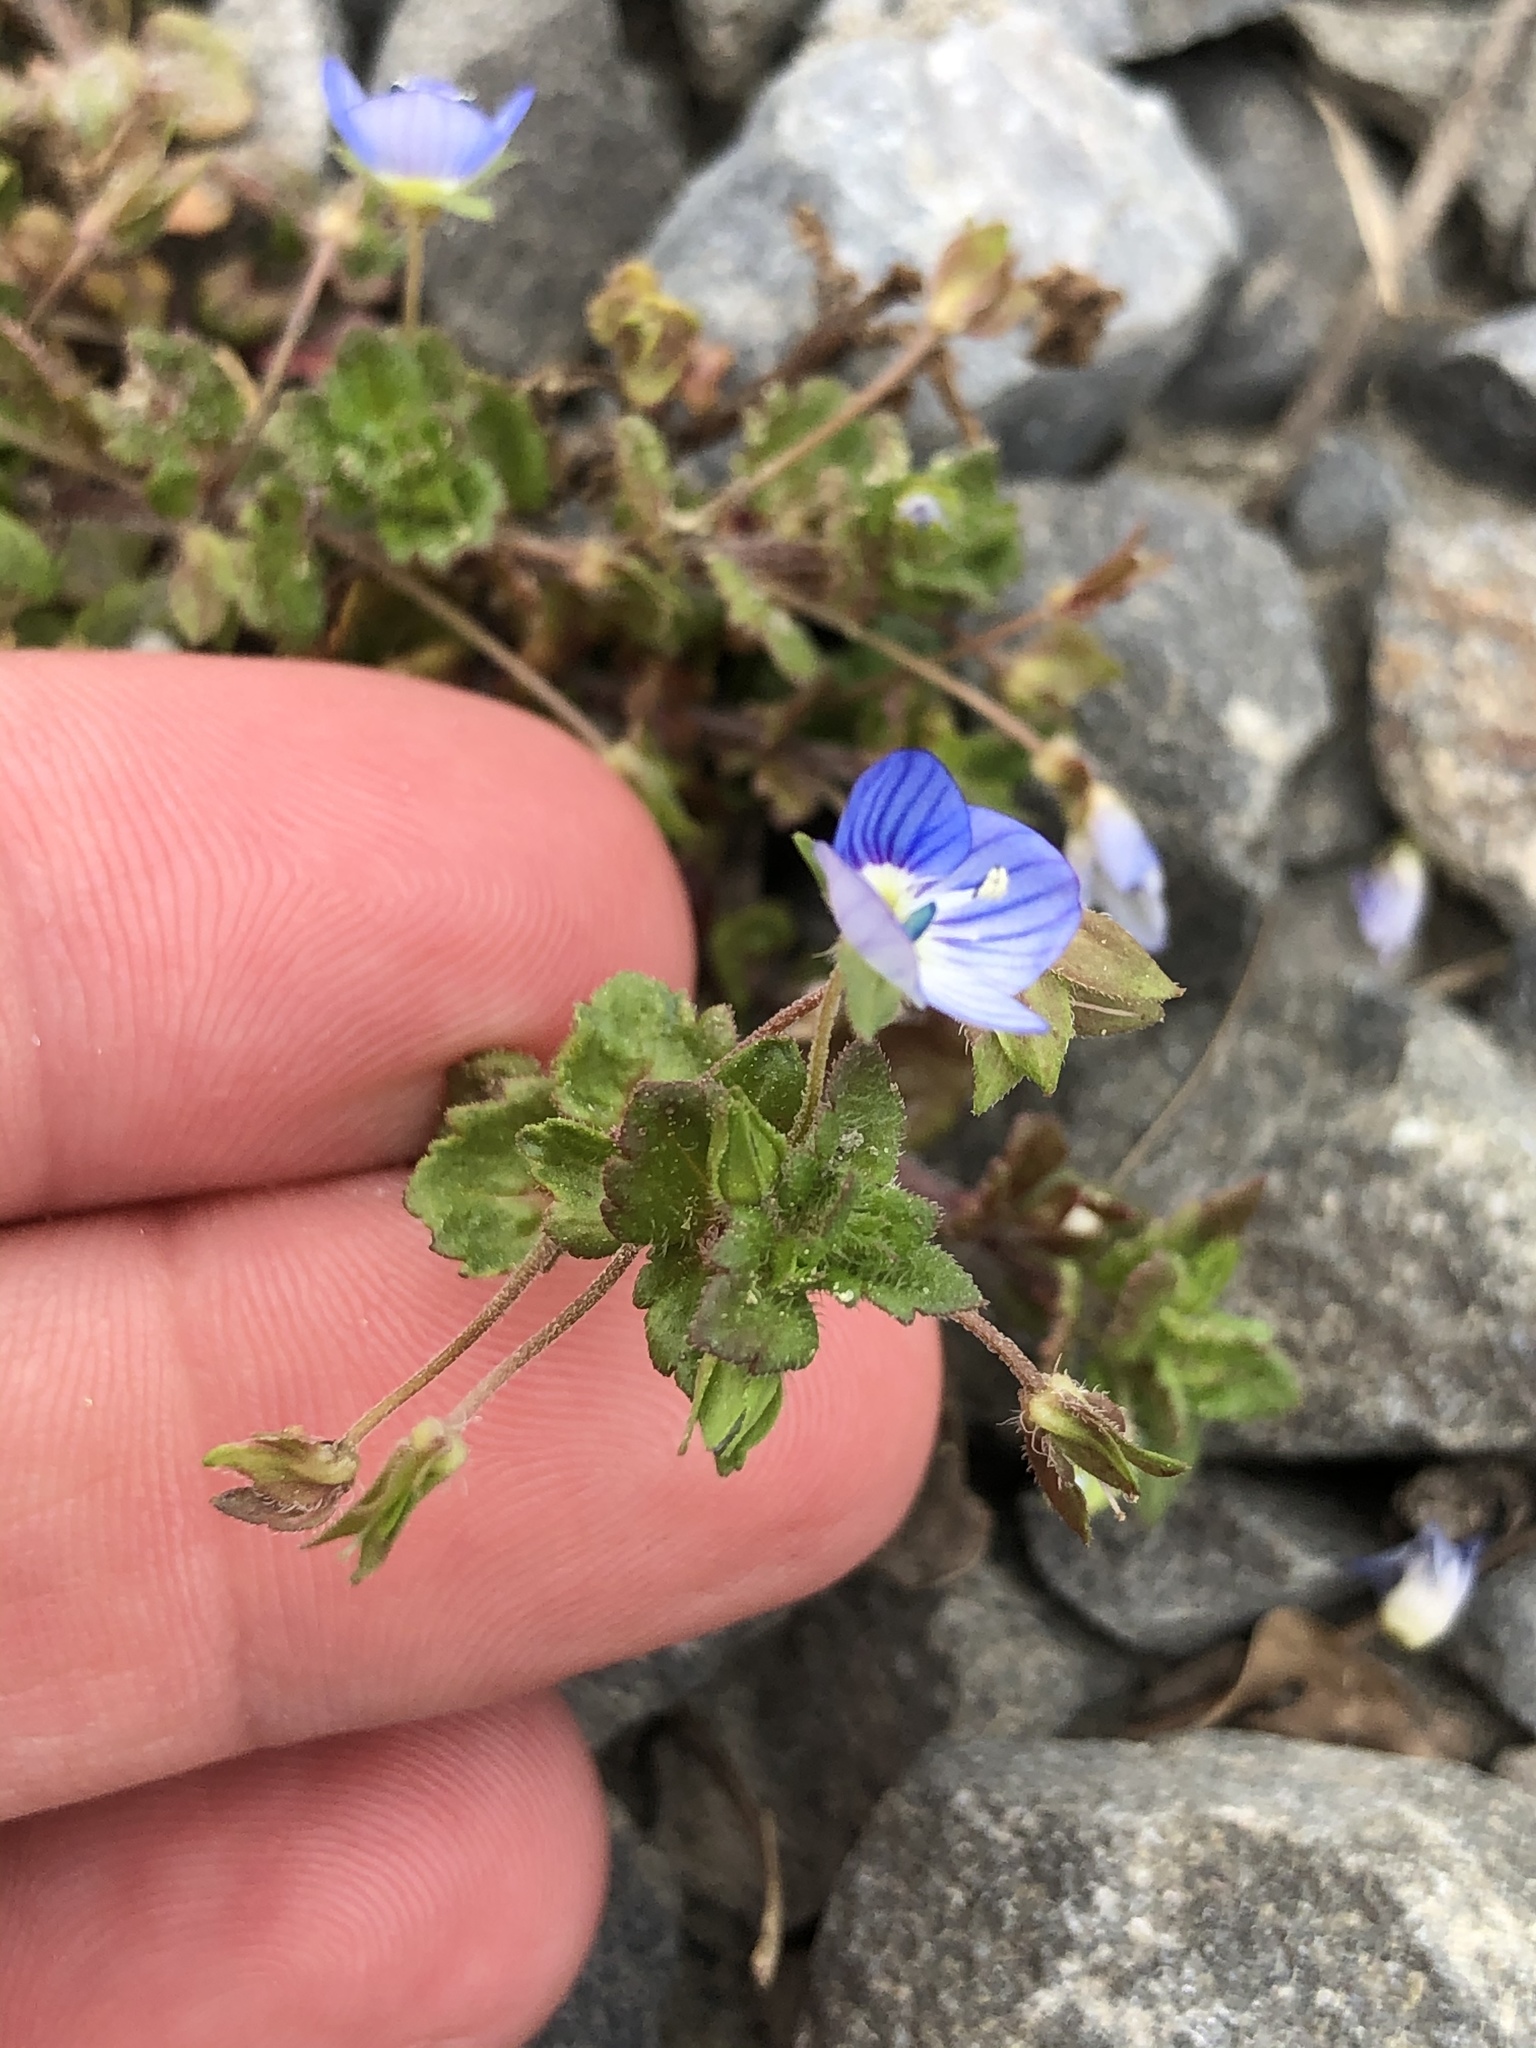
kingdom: Plantae
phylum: Tracheophyta
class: Magnoliopsida
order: Lamiales
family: Plantaginaceae
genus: Veronica
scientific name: Veronica persica
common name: Common field-speedwell
